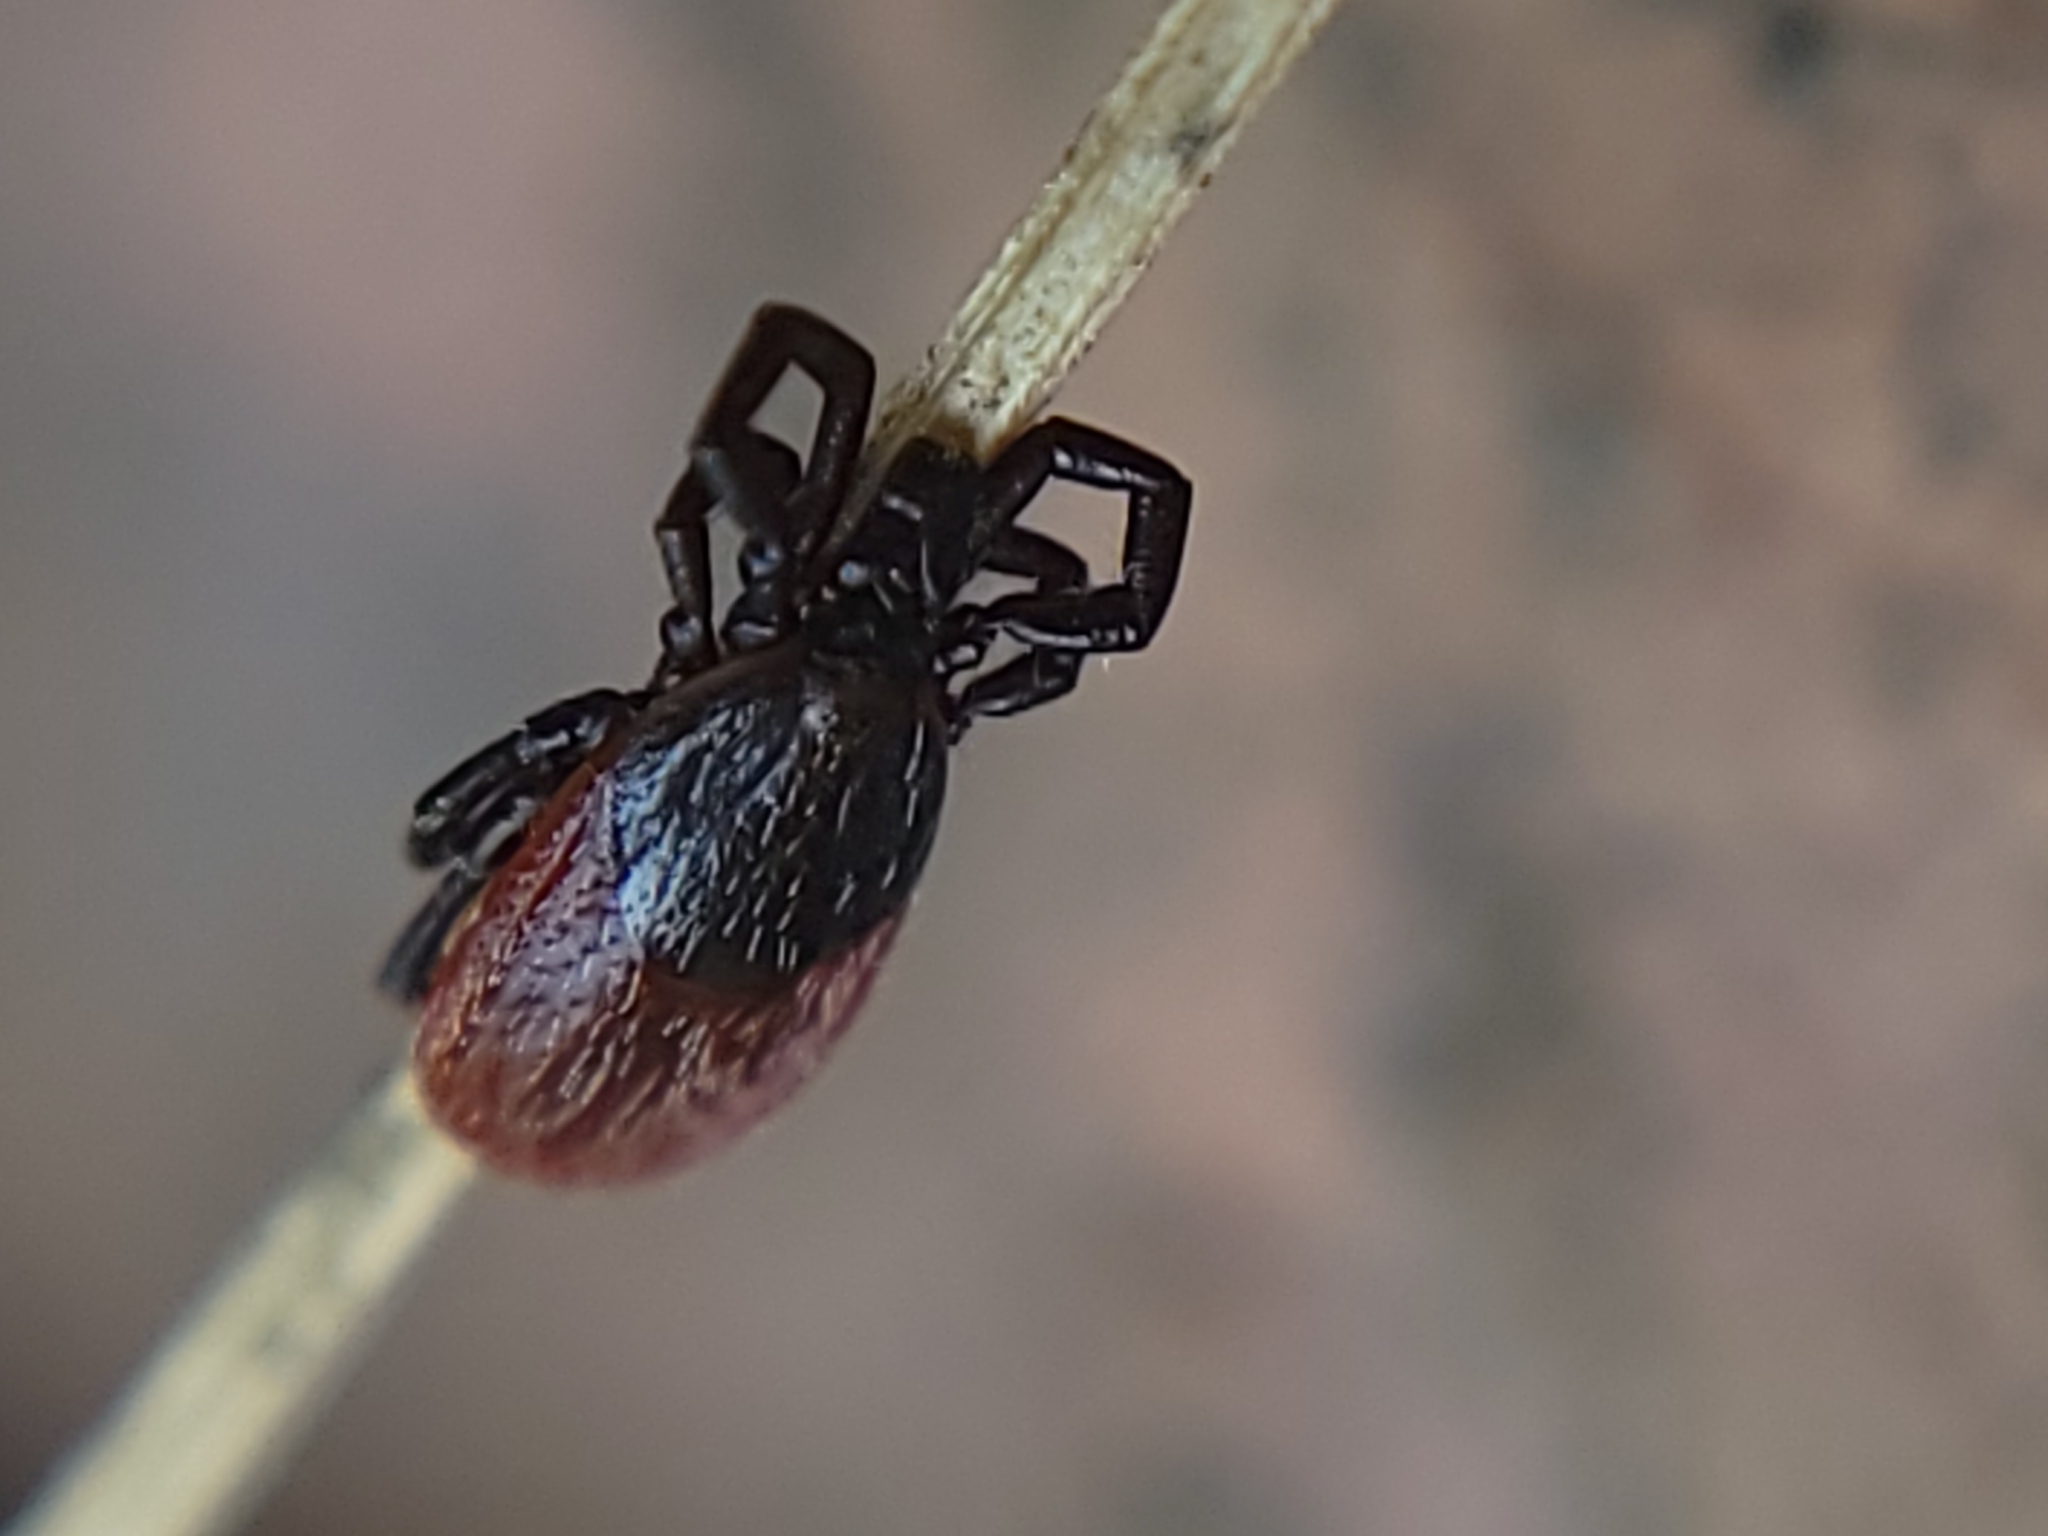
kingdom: Animalia
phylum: Arthropoda
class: Arachnida
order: Ixodida
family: Ixodidae
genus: Ixodes
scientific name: Ixodes pacificus
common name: California black-legged tick
